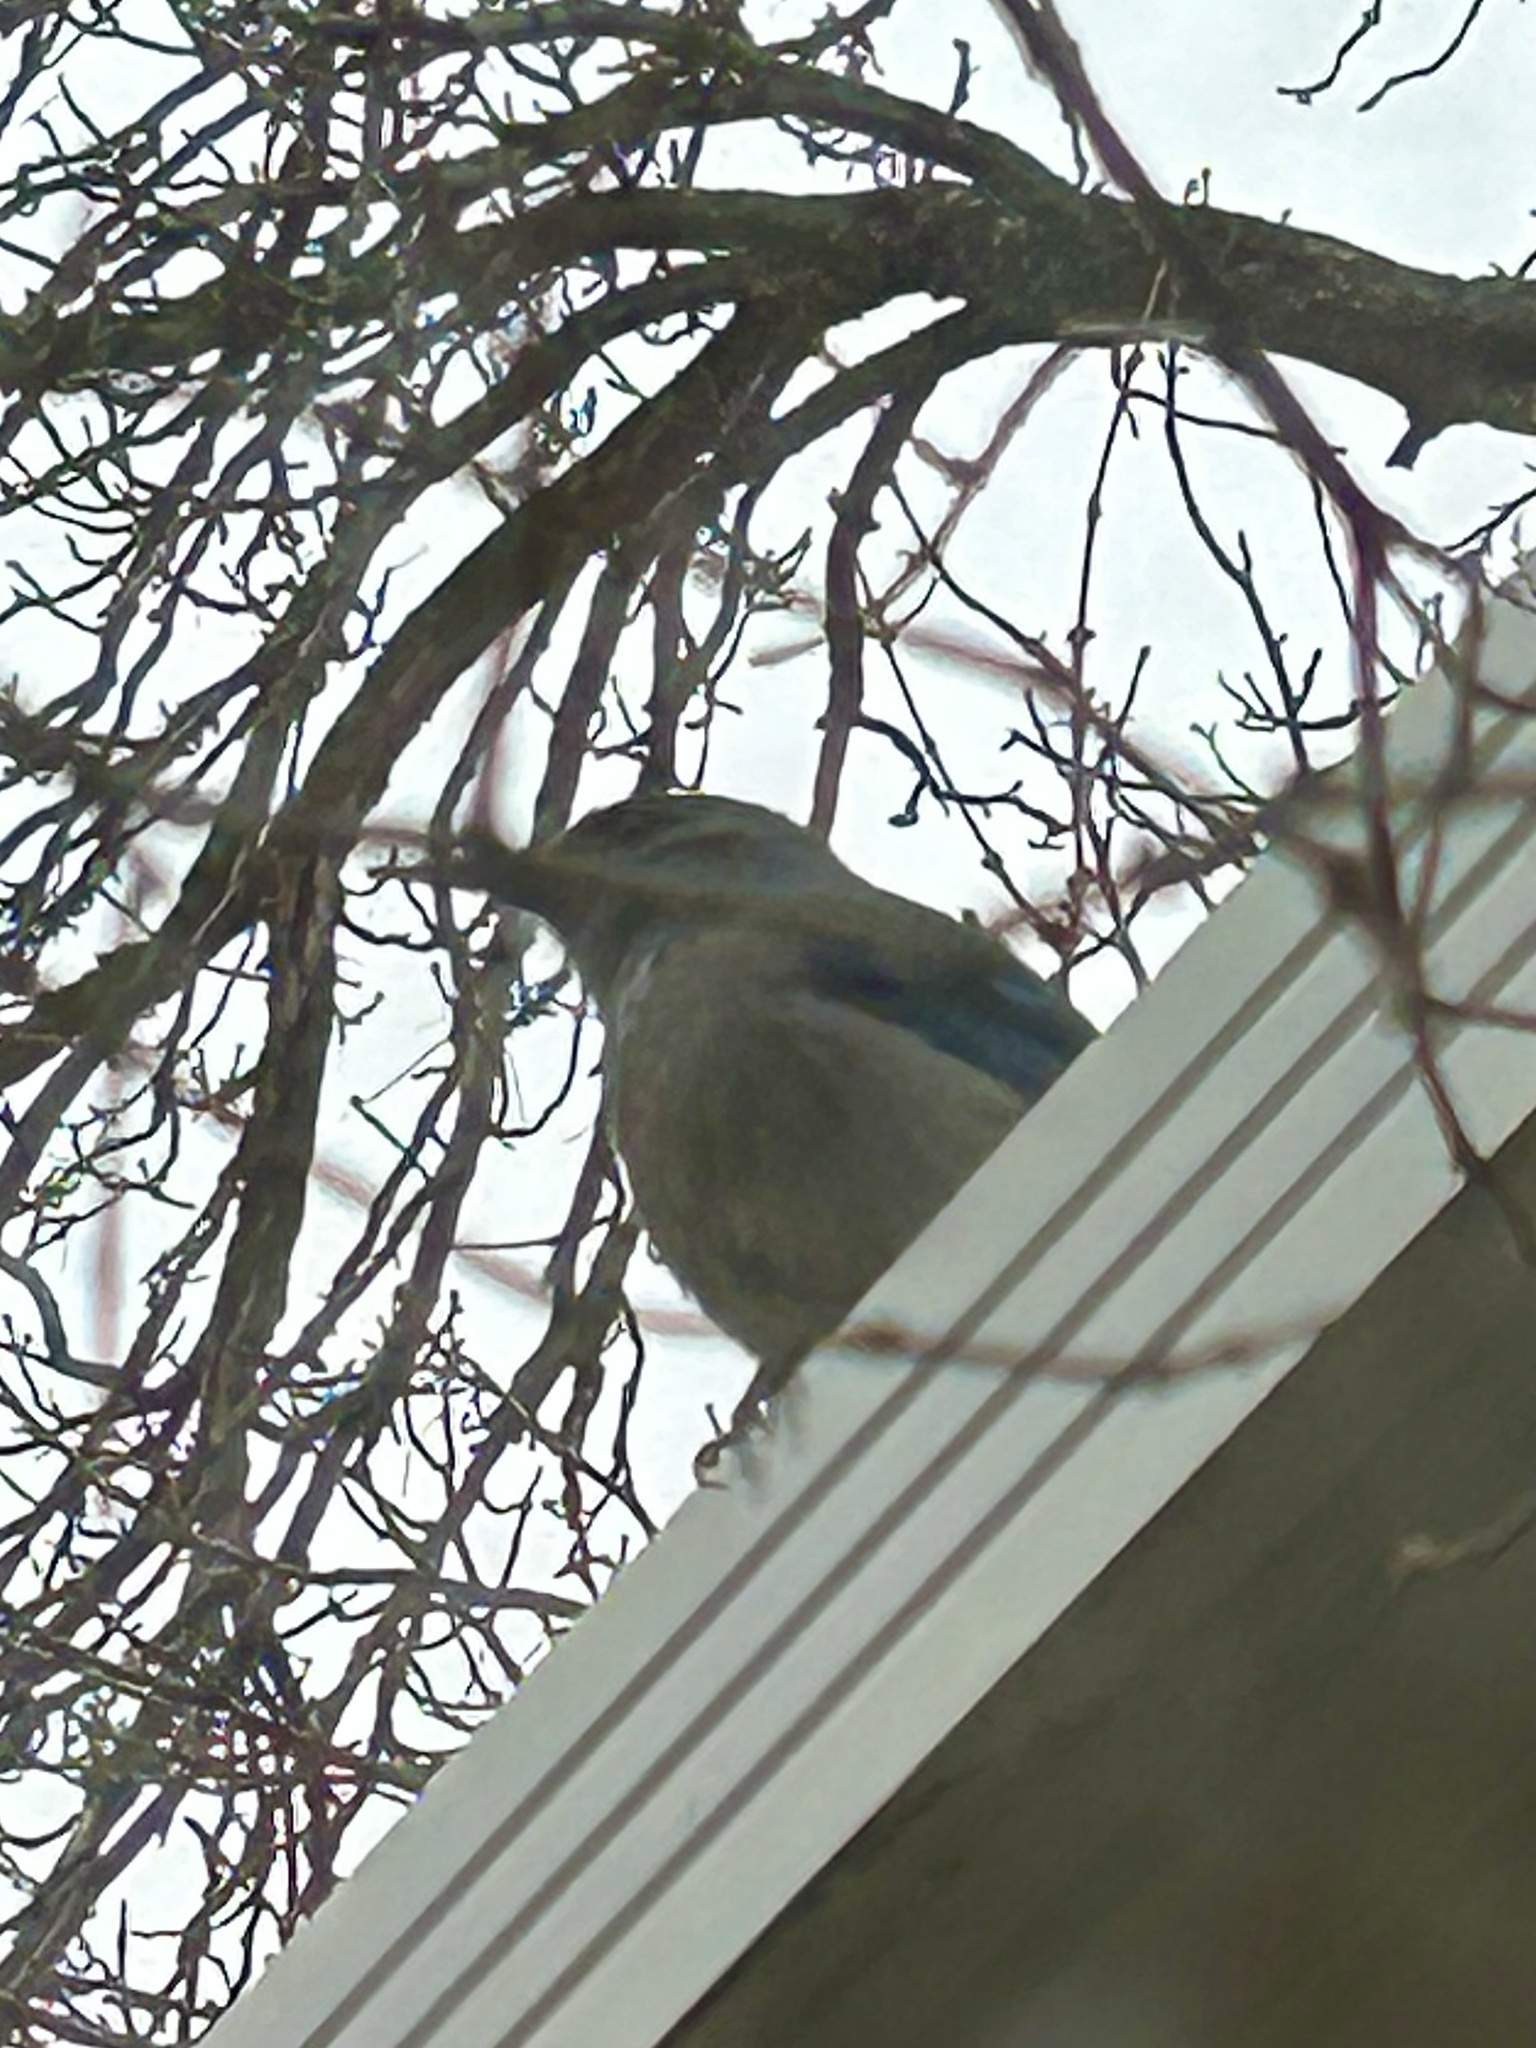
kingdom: Animalia
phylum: Chordata
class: Aves
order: Passeriformes
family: Corvidae
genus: Aphelocoma
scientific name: Aphelocoma woodhouseii
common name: Woodhouse's scrub-jay
